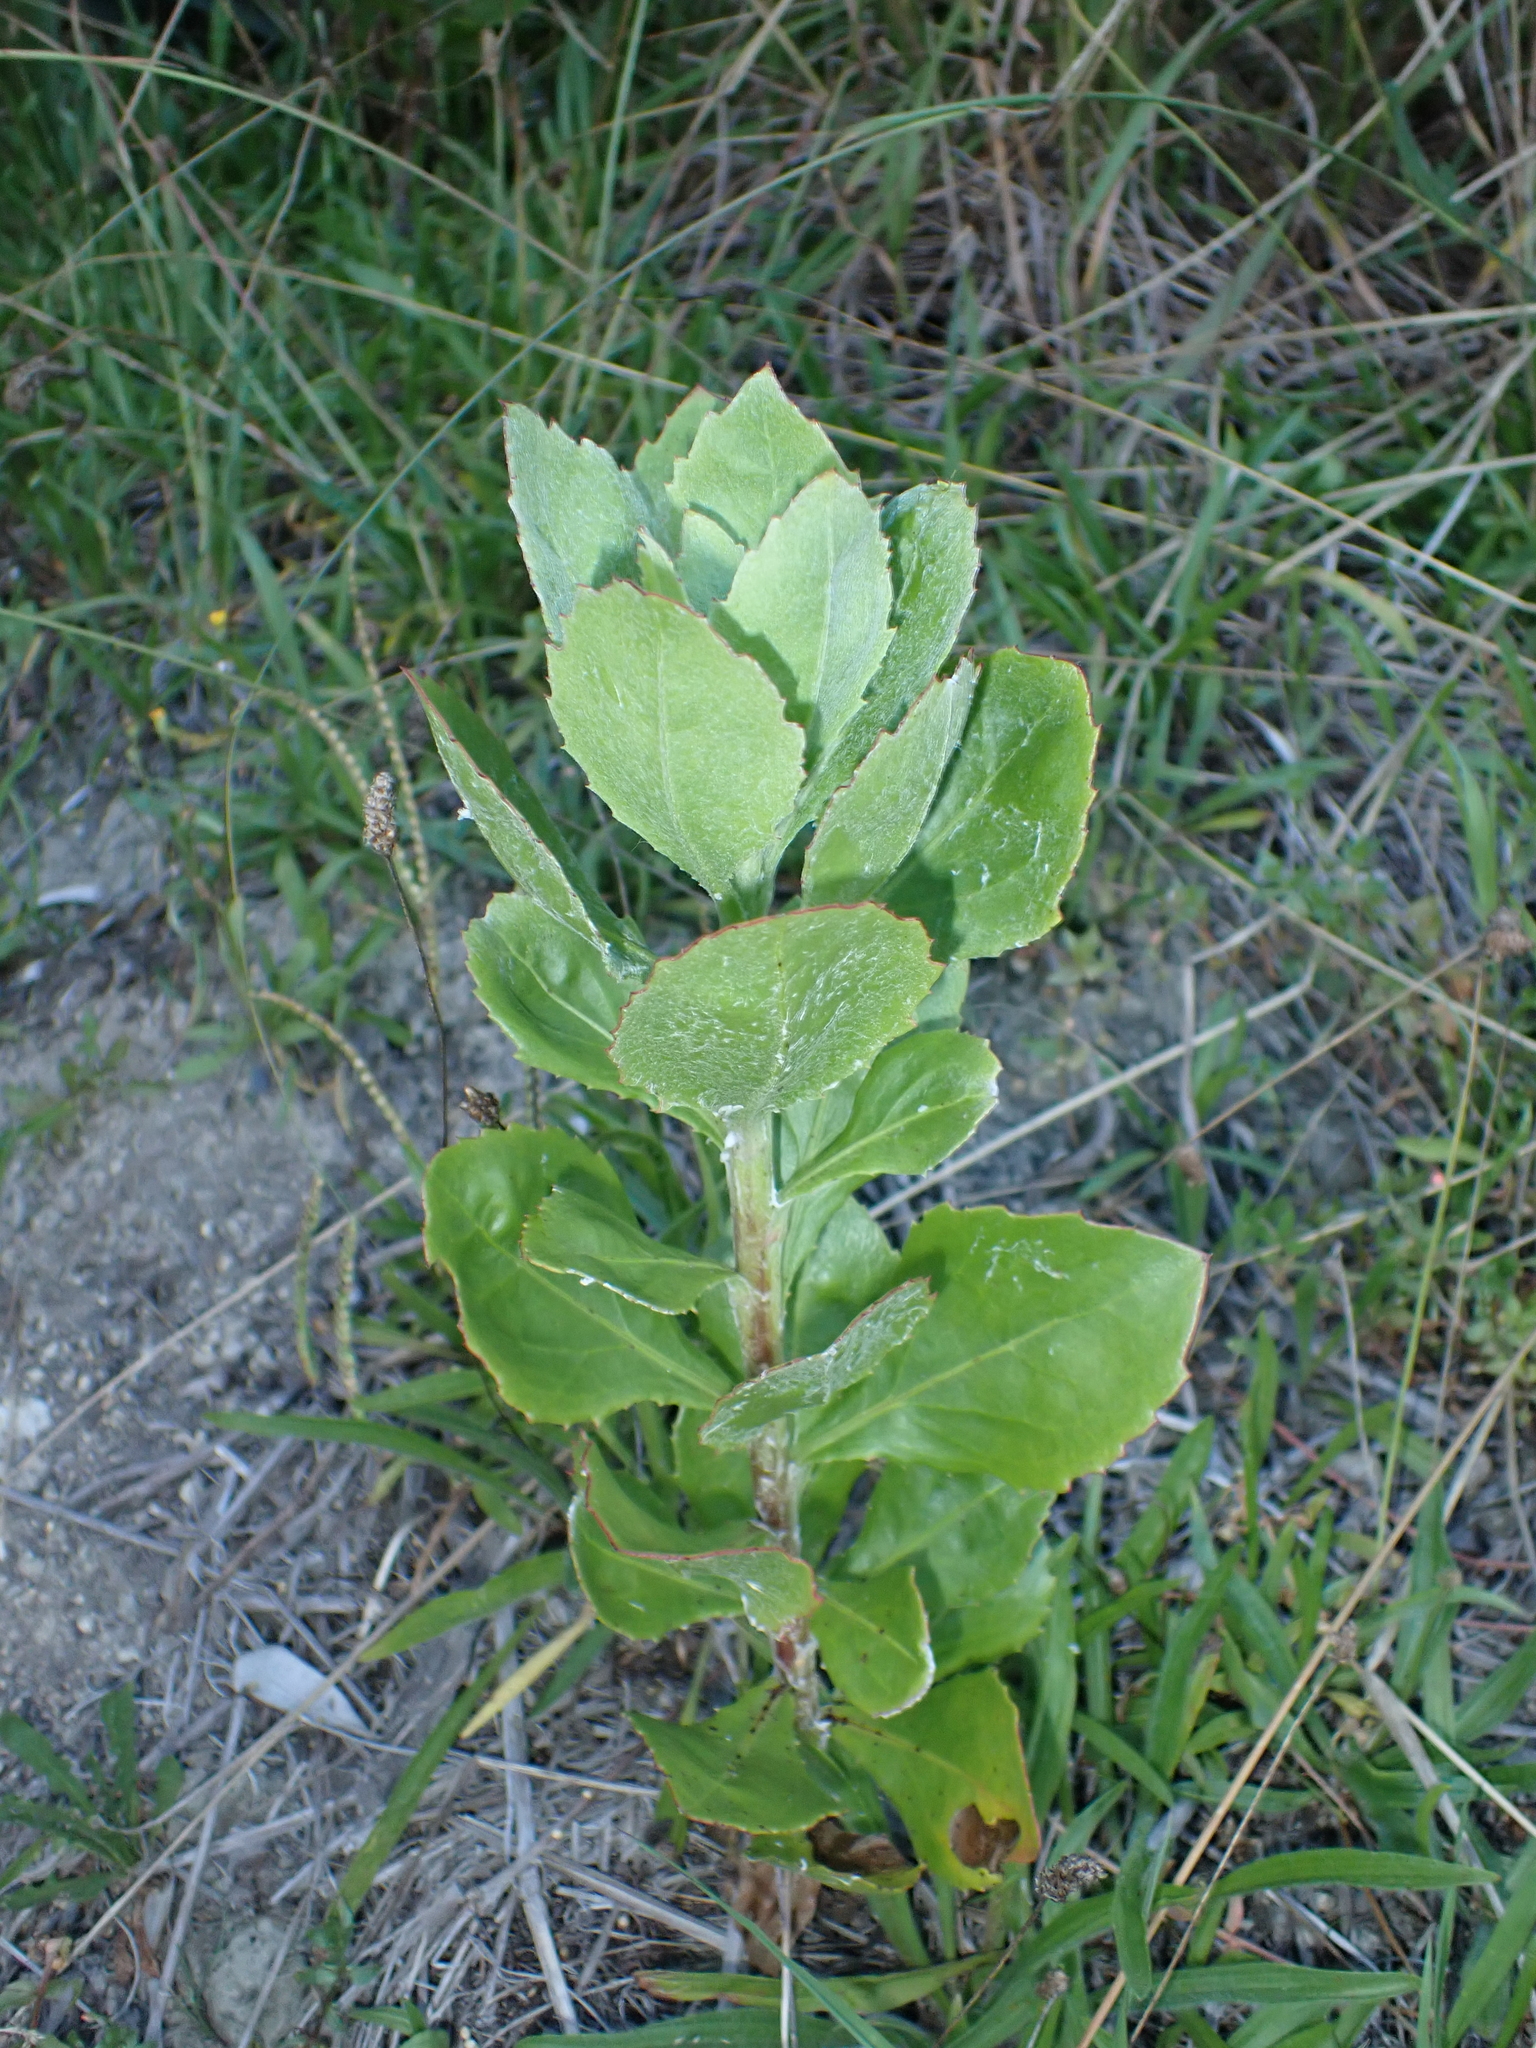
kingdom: Plantae
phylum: Tracheophyta
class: Magnoliopsida
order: Asterales
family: Asteraceae
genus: Osteospermum
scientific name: Osteospermum moniliferum
